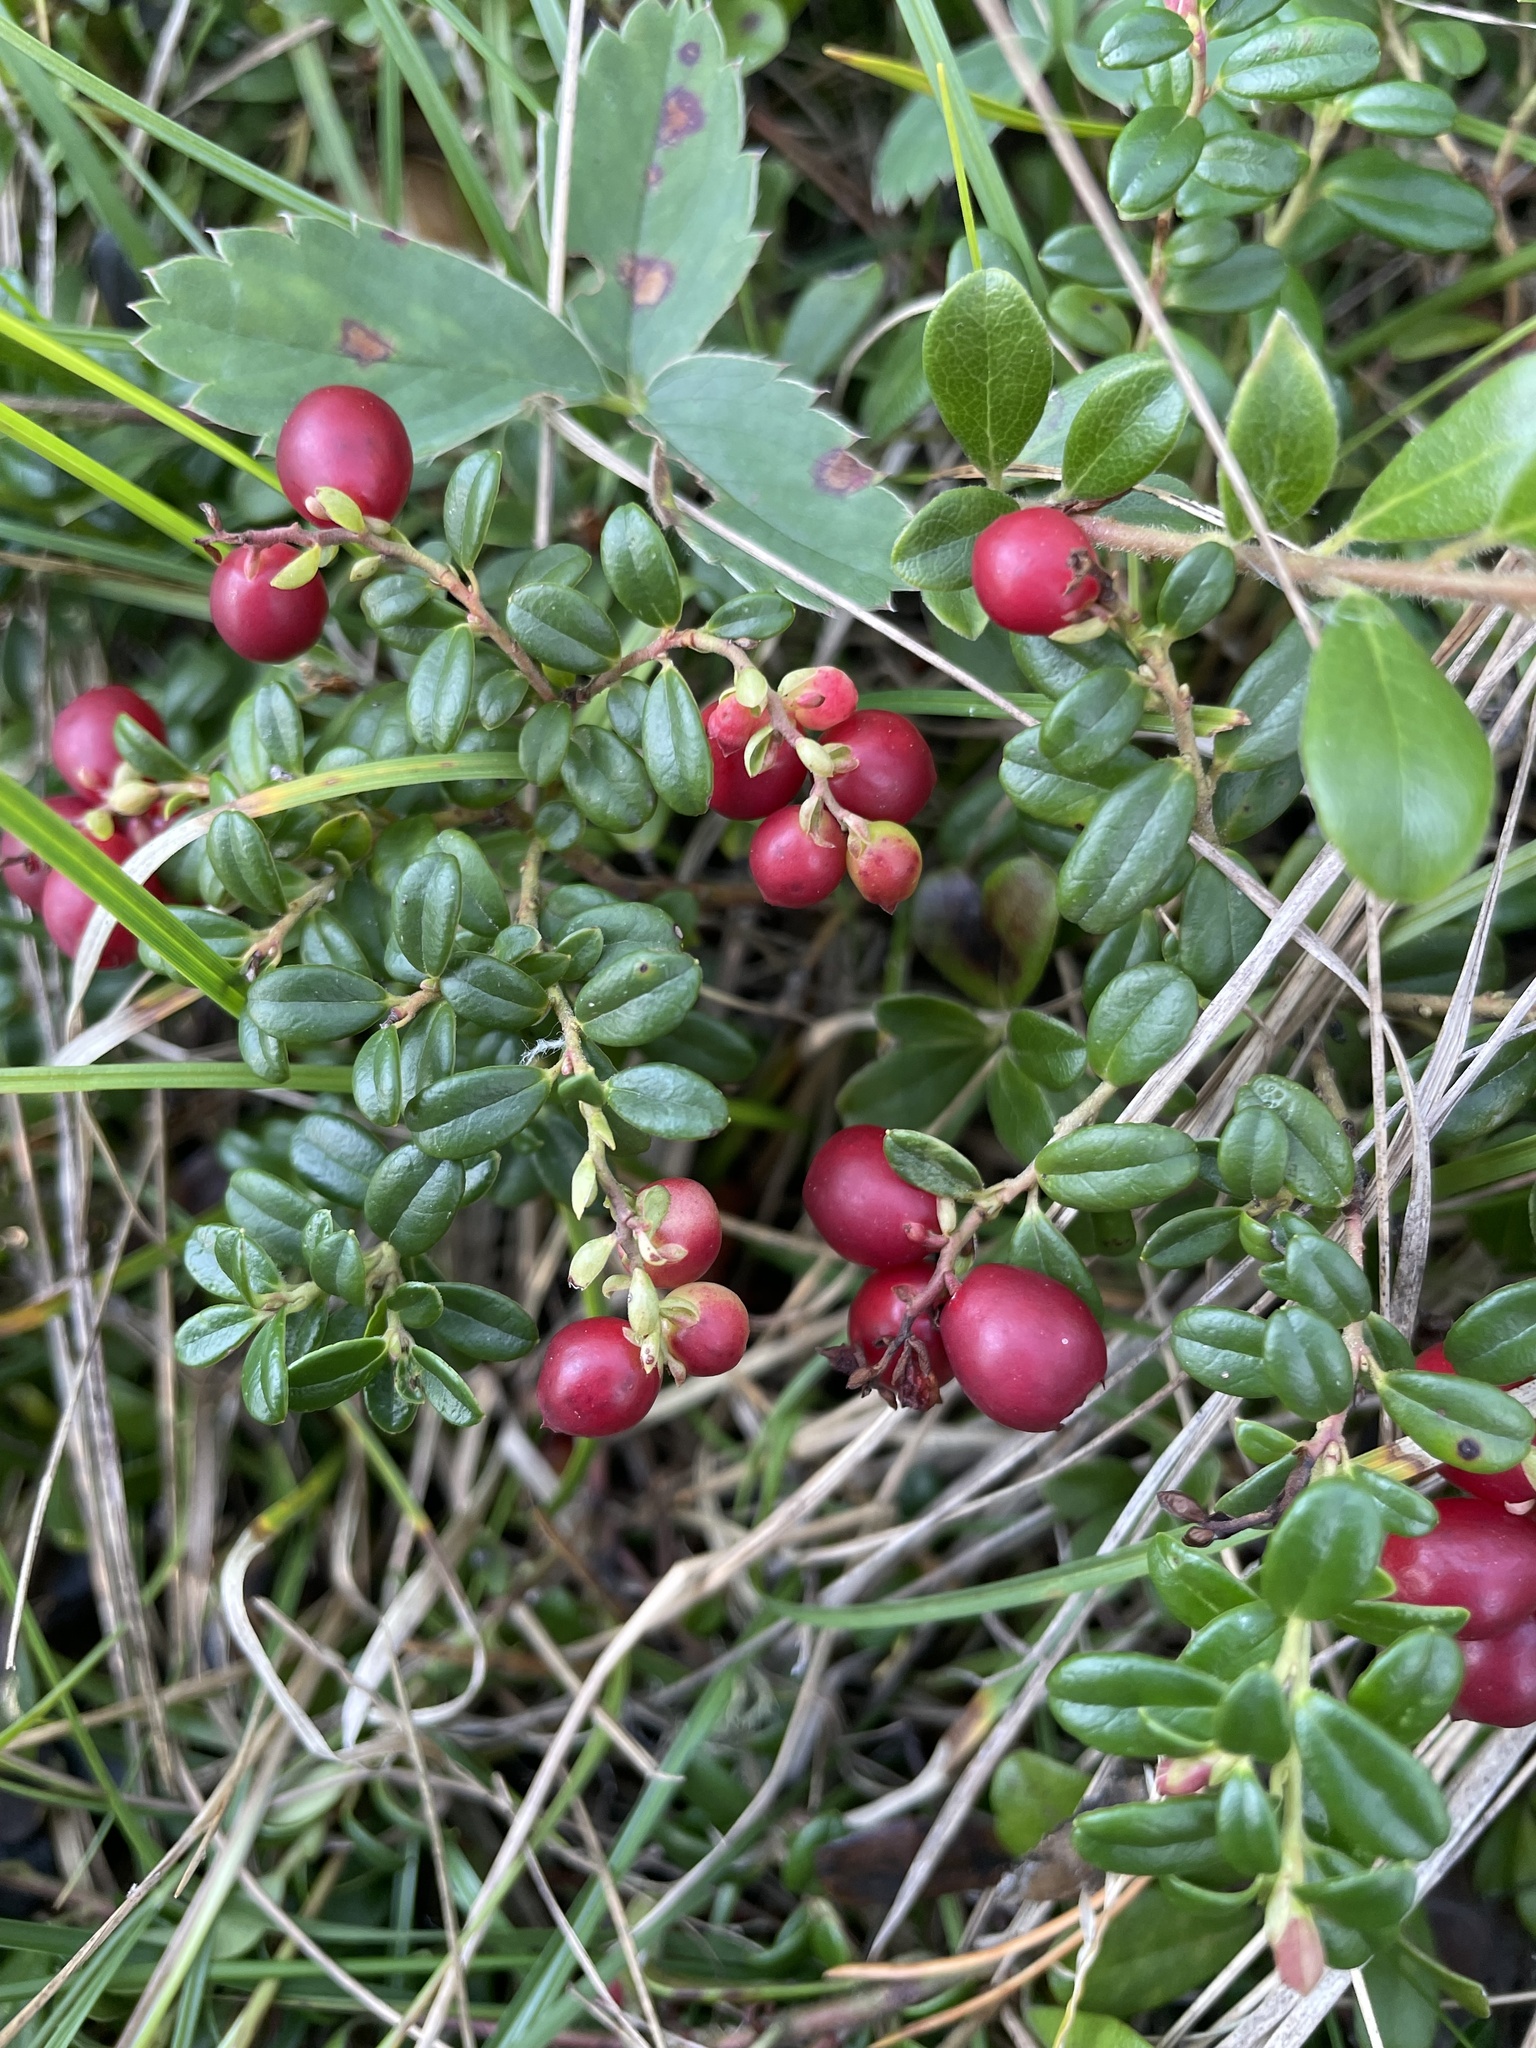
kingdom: Plantae
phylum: Tracheophyta
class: Magnoliopsida
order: Ericales
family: Ericaceae
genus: Vaccinium
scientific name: Vaccinium vitis-idaea
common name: Cowberry
